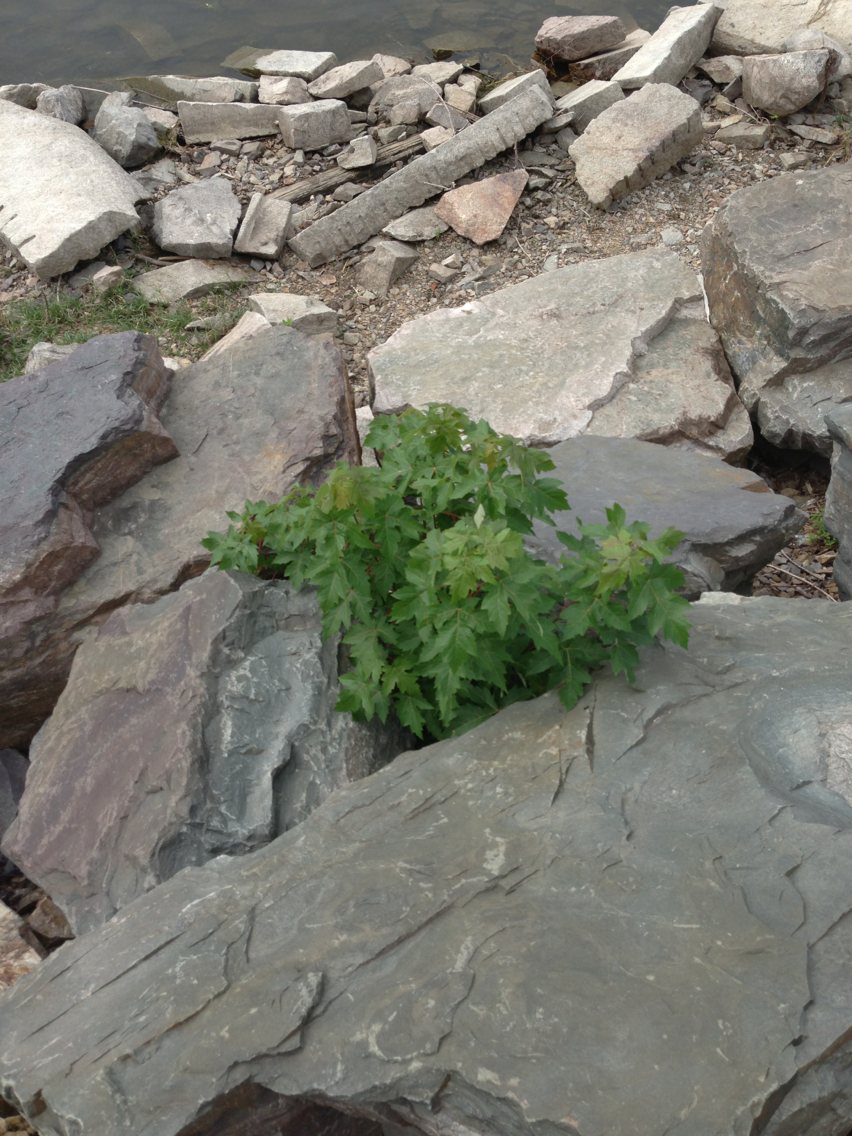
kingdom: Plantae
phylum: Tracheophyta
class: Magnoliopsida
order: Sapindales
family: Sapindaceae
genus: Acer
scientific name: Acer saccharinum
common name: Silver maple
